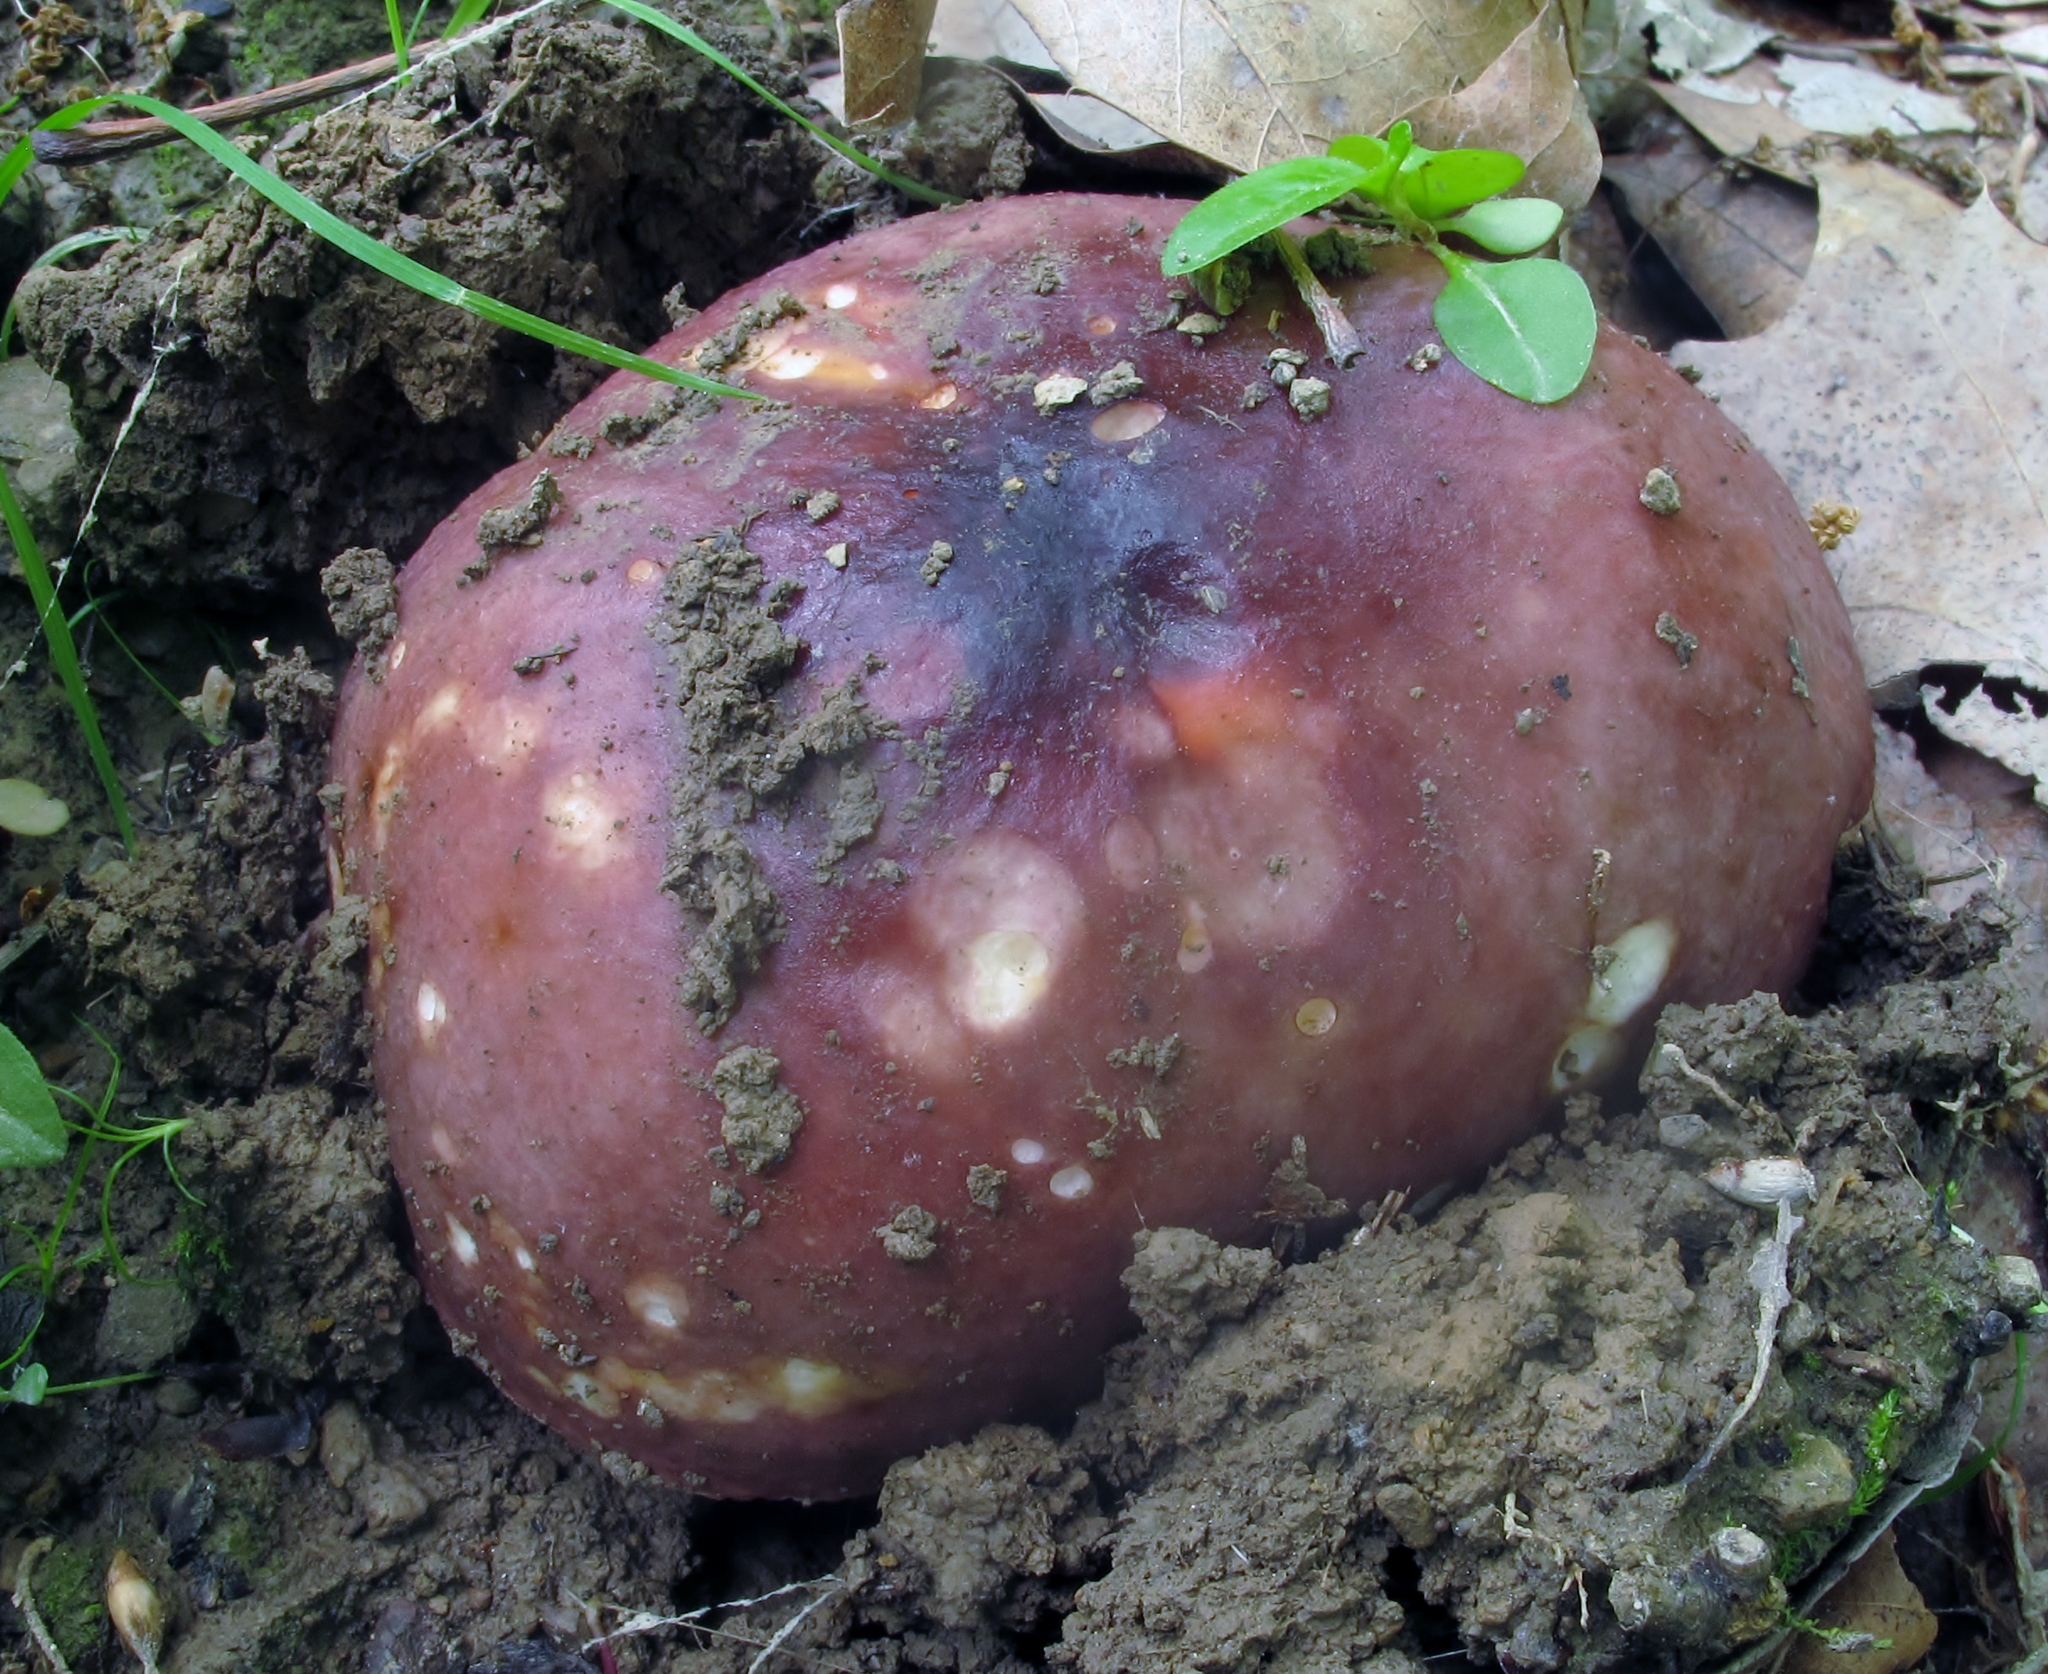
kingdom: Fungi
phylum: Basidiomycota
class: Agaricomycetes
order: Russulales
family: Russulaceae
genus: Russula
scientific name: Russula vinacea
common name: Blackish-red russula
